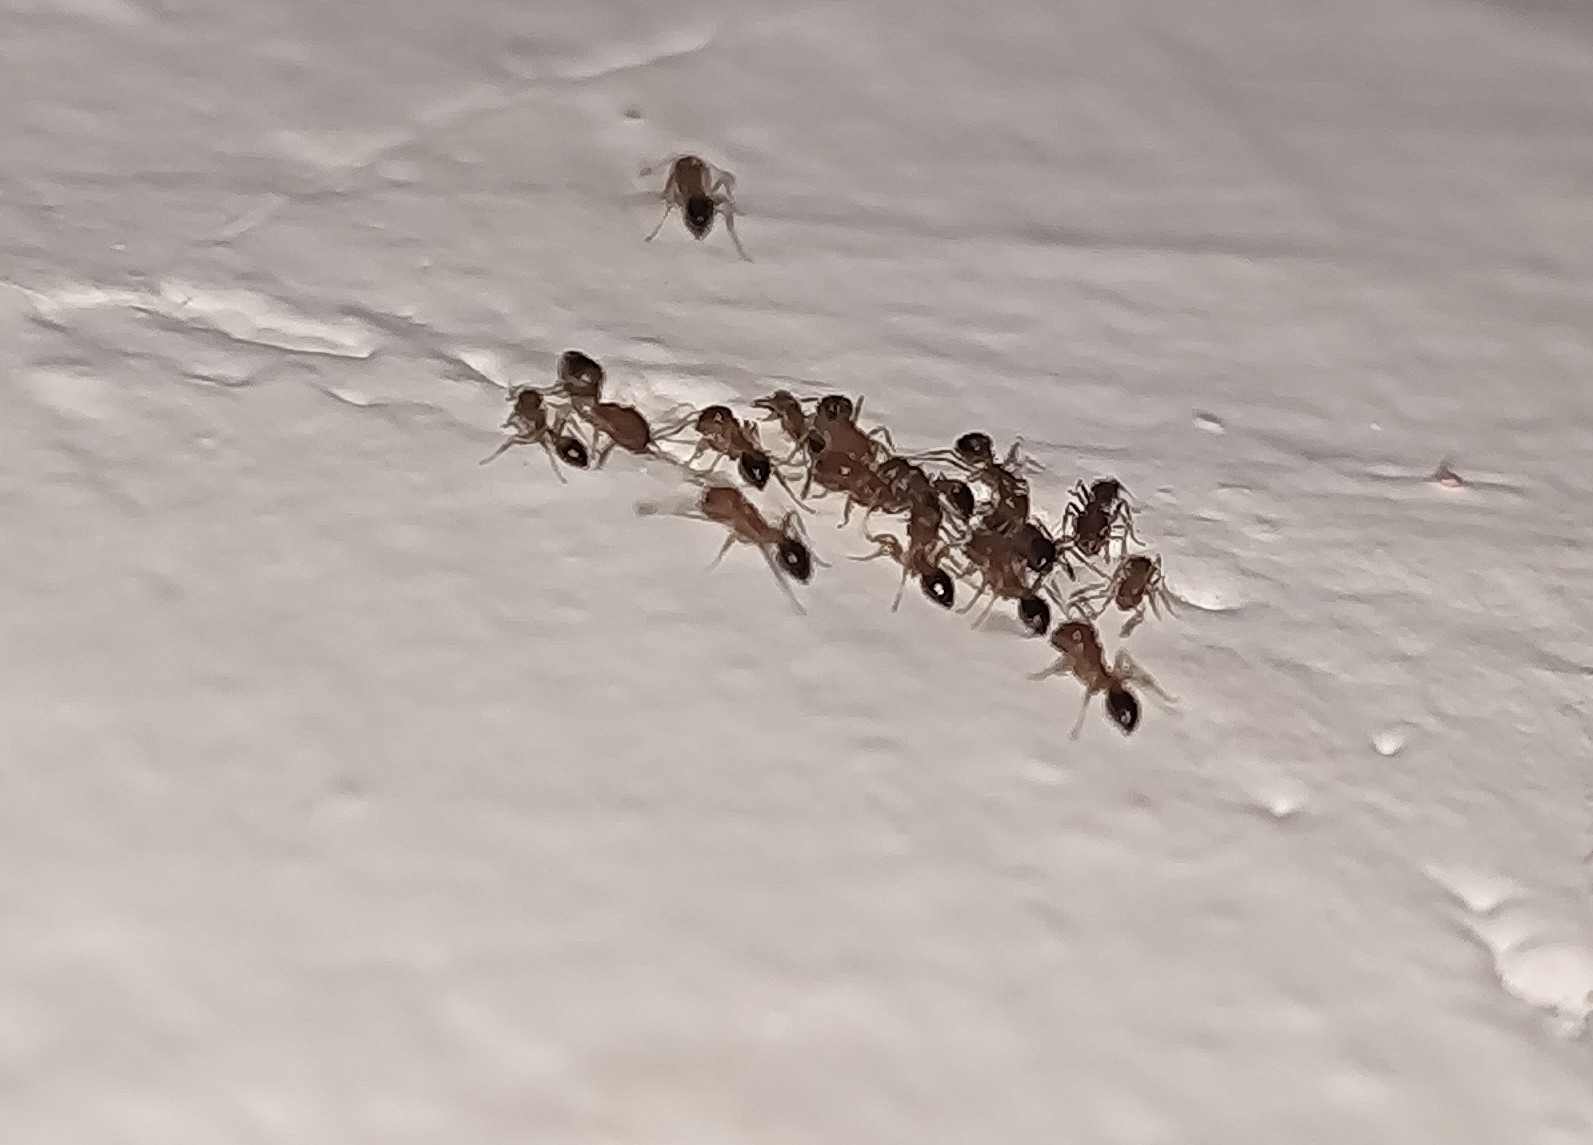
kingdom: Animalia
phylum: Arthropoda
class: Insecta
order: Hymenoptera
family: Formicidae
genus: Monomorium
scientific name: Monomorium destructor
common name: Destructive trailing ant
